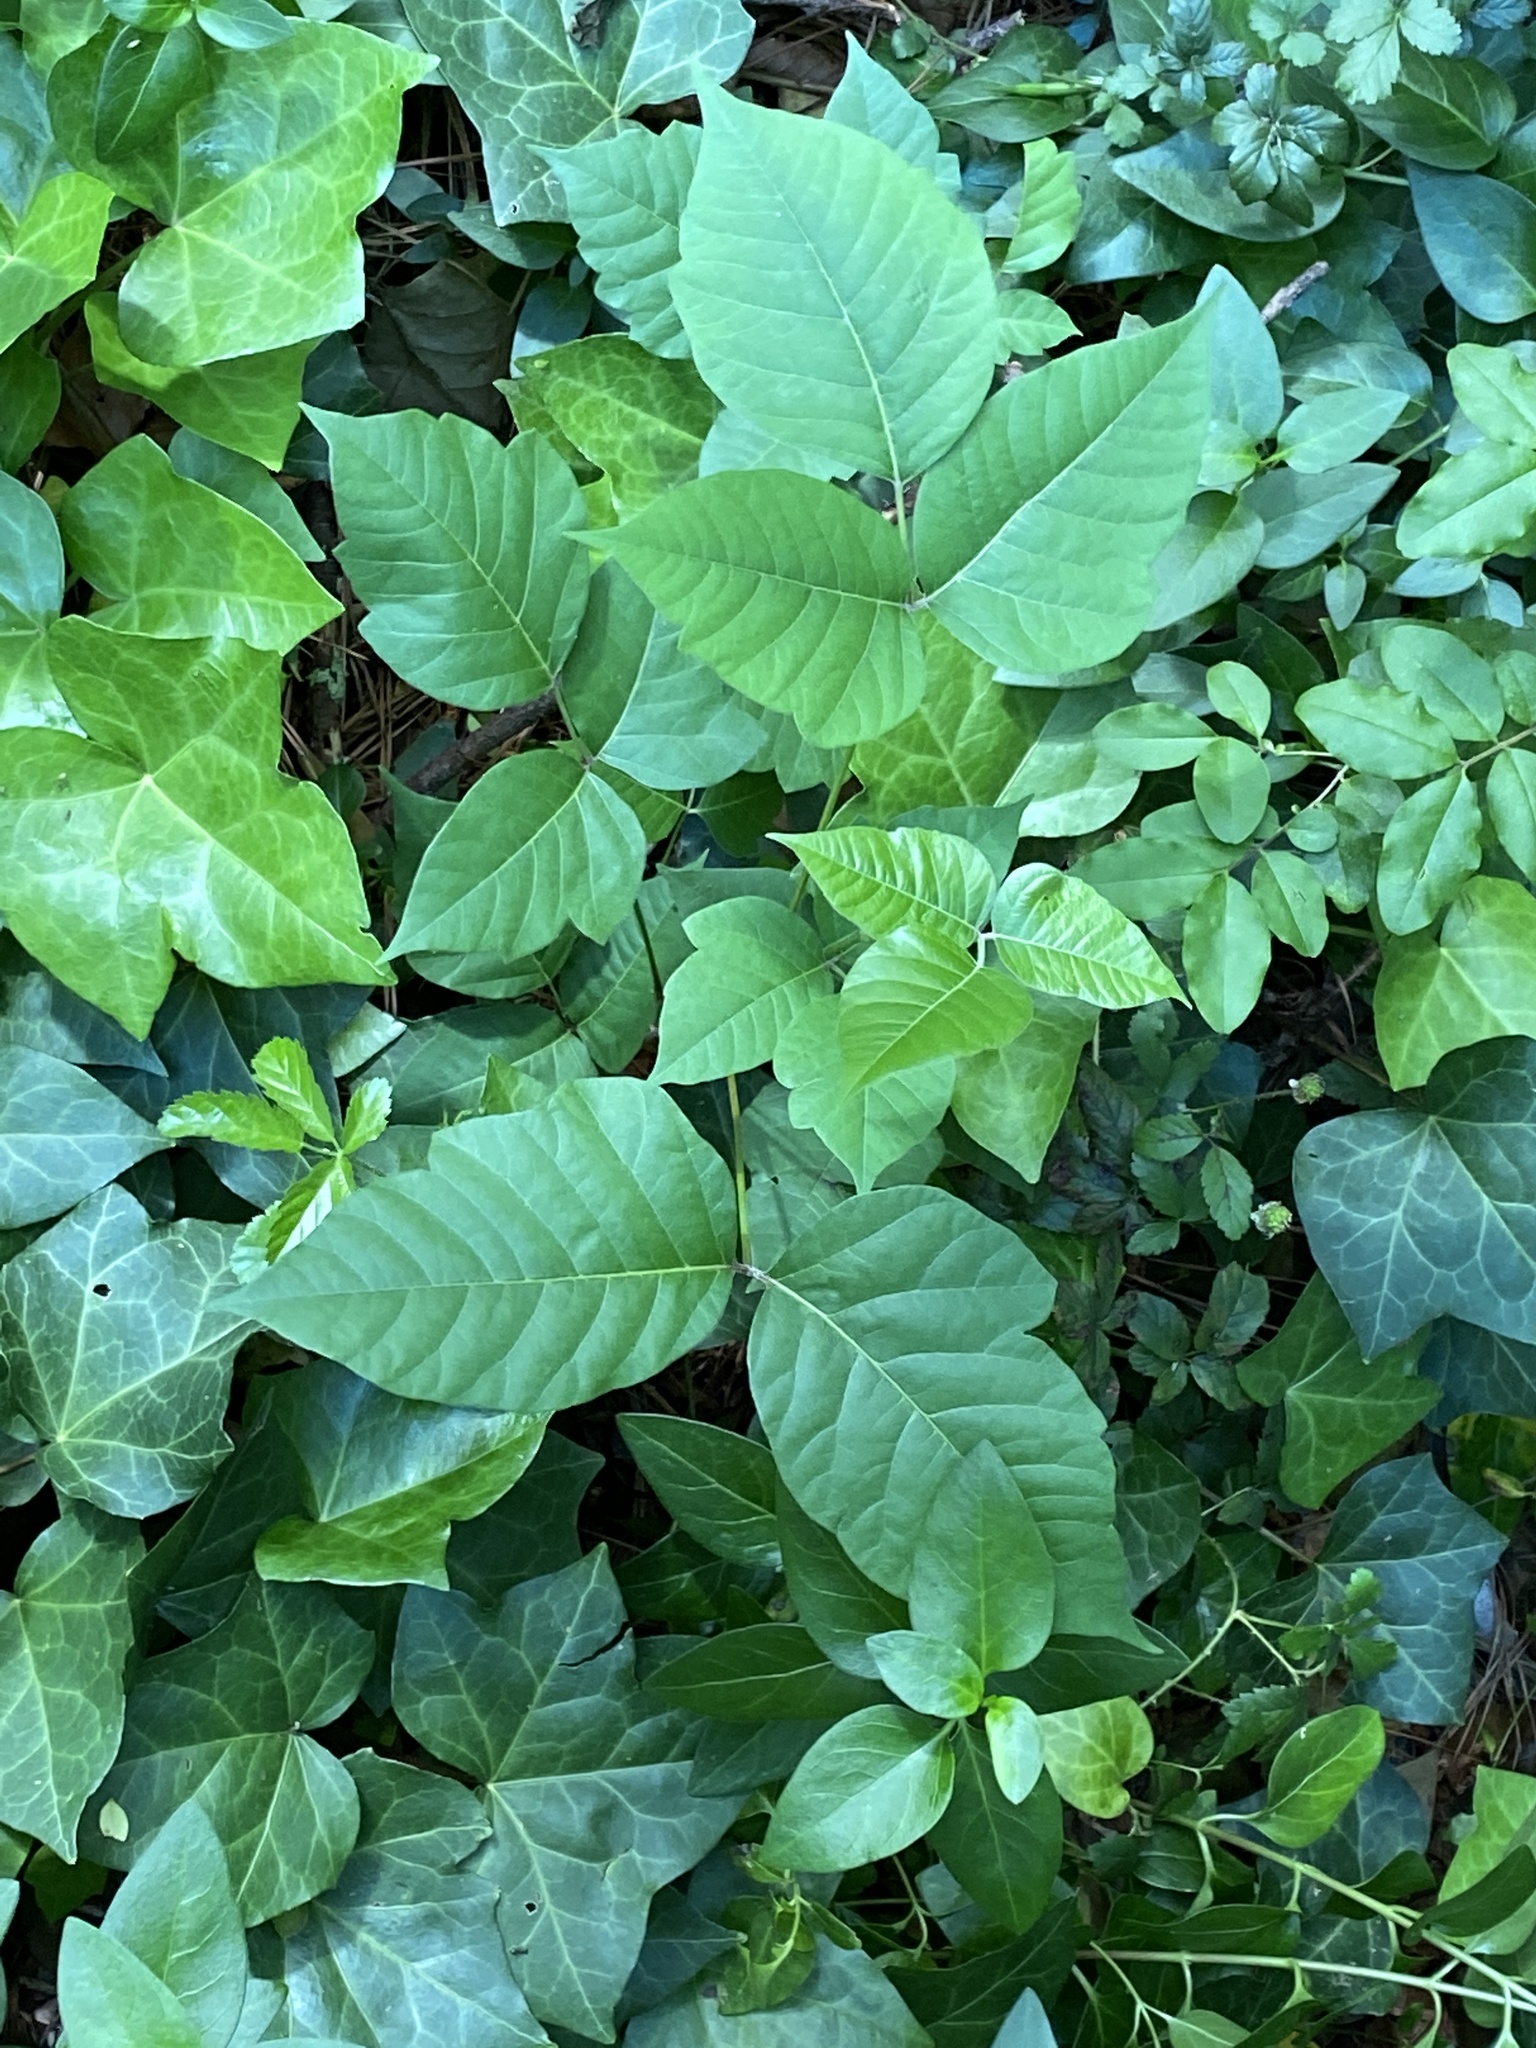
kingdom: Plantae
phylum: Tracheophyta
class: Magnoliopsida
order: Sapindales
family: Anacardiaceae
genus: Toxicodendron
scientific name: Toxicodendron radicans
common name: Poison ivy
